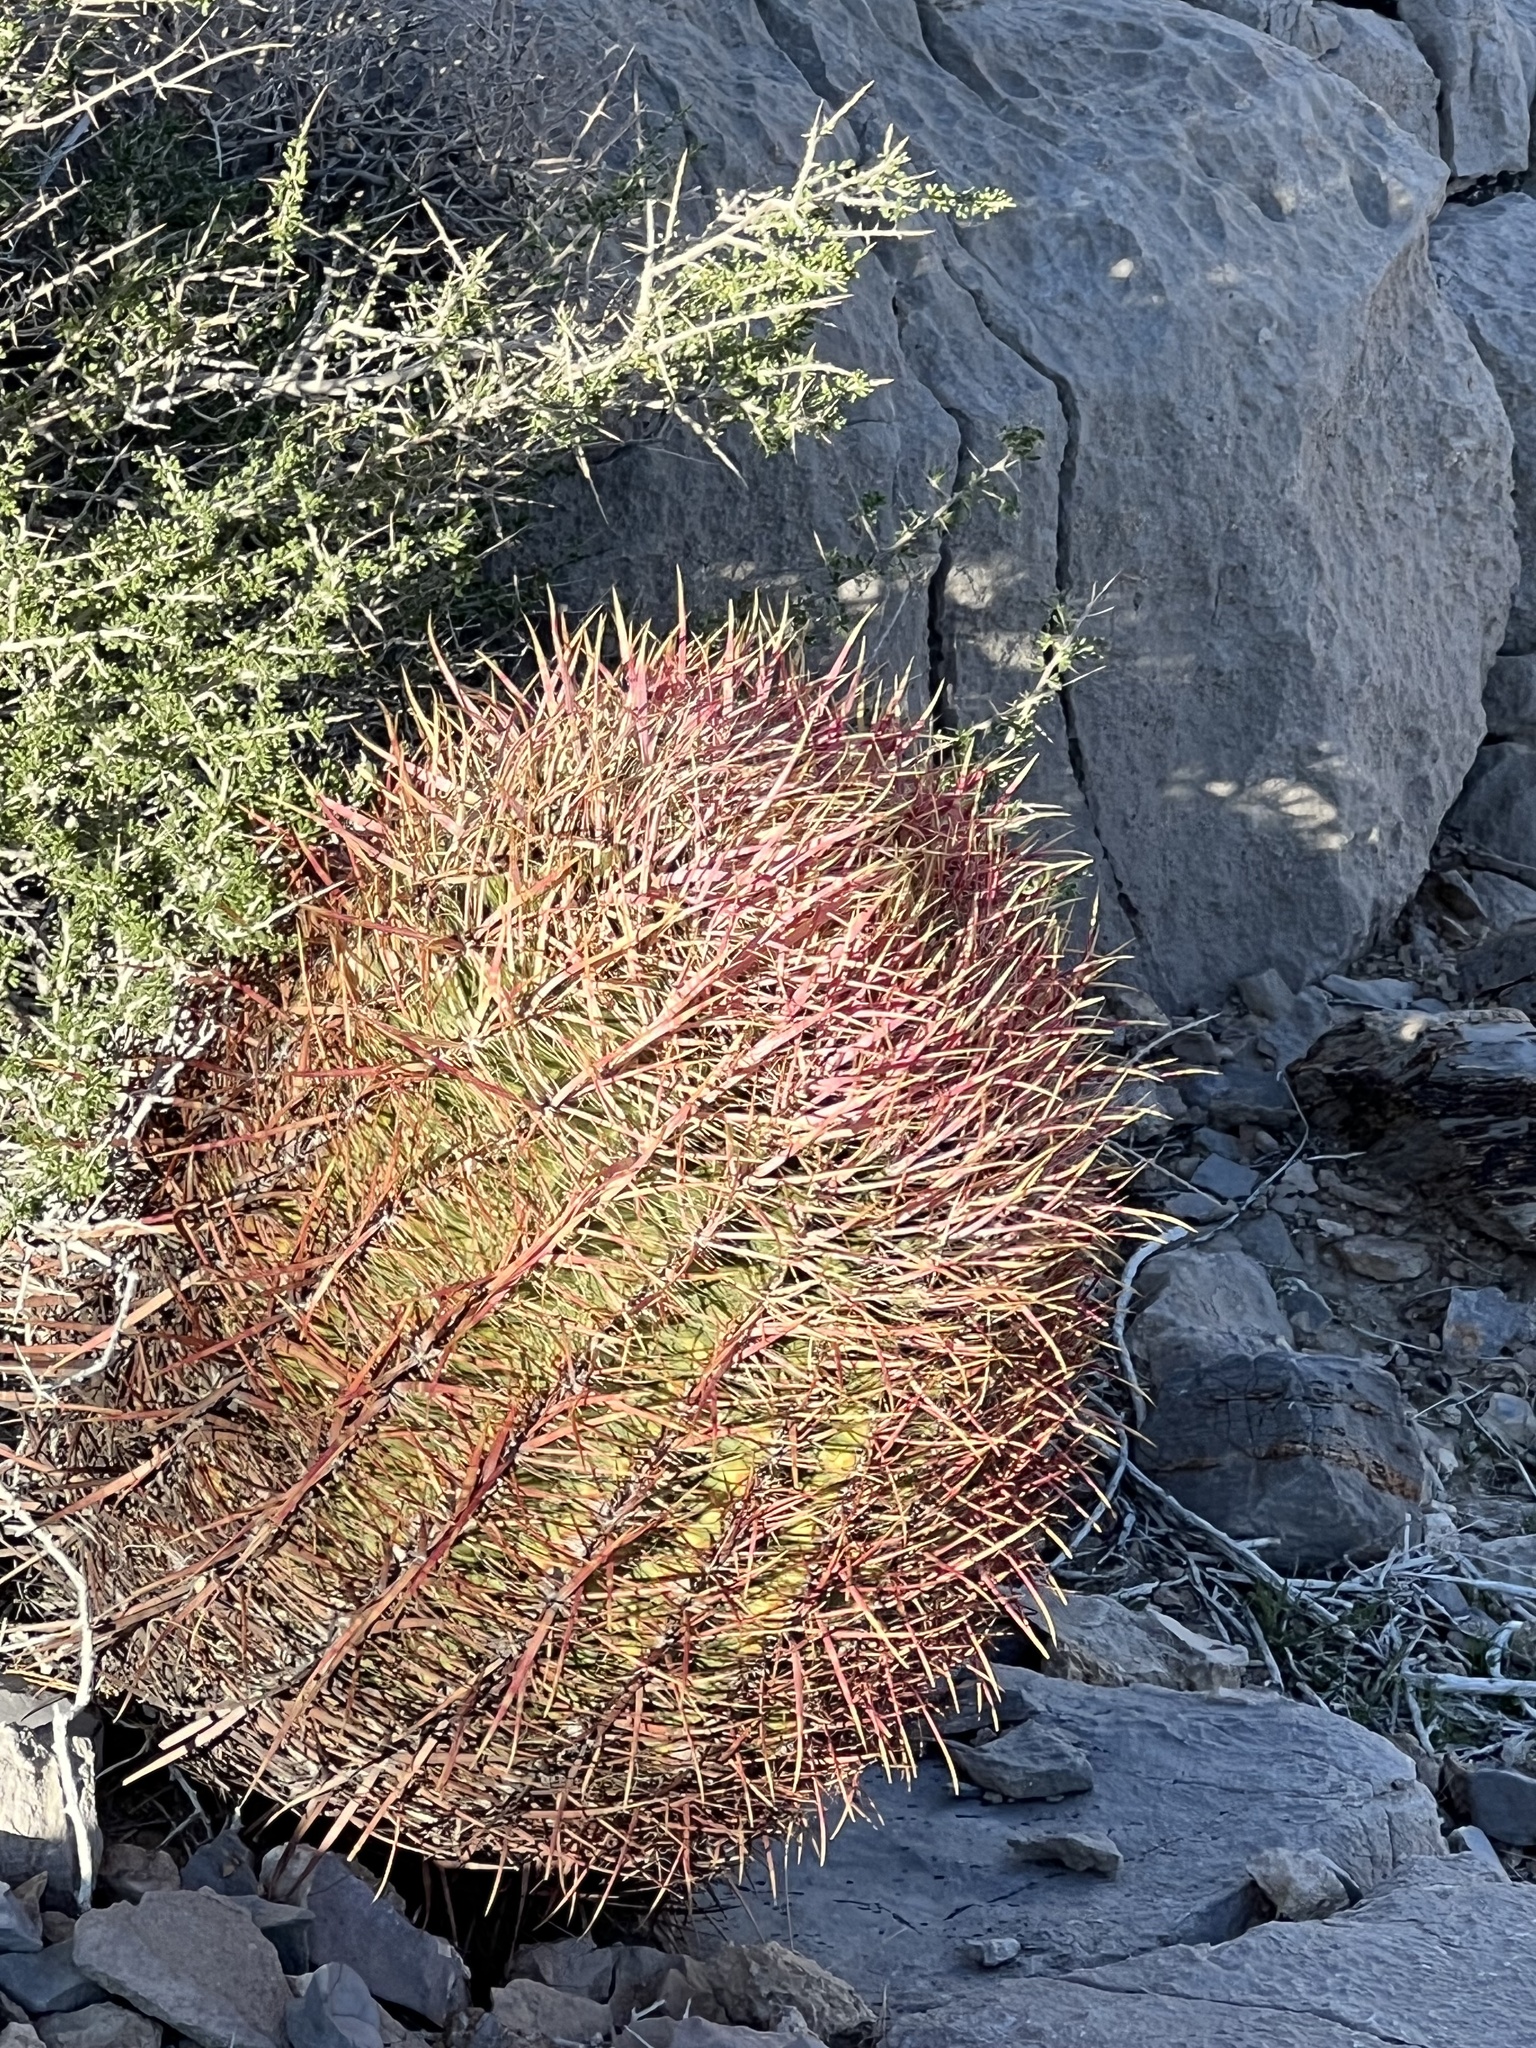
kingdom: Plantae
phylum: Tracheophyta
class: Magnoliopsida
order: Caryophyllales
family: Cactaceae
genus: Ferocactus
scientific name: Ferocactus cylindraceus
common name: California barrel cactus
